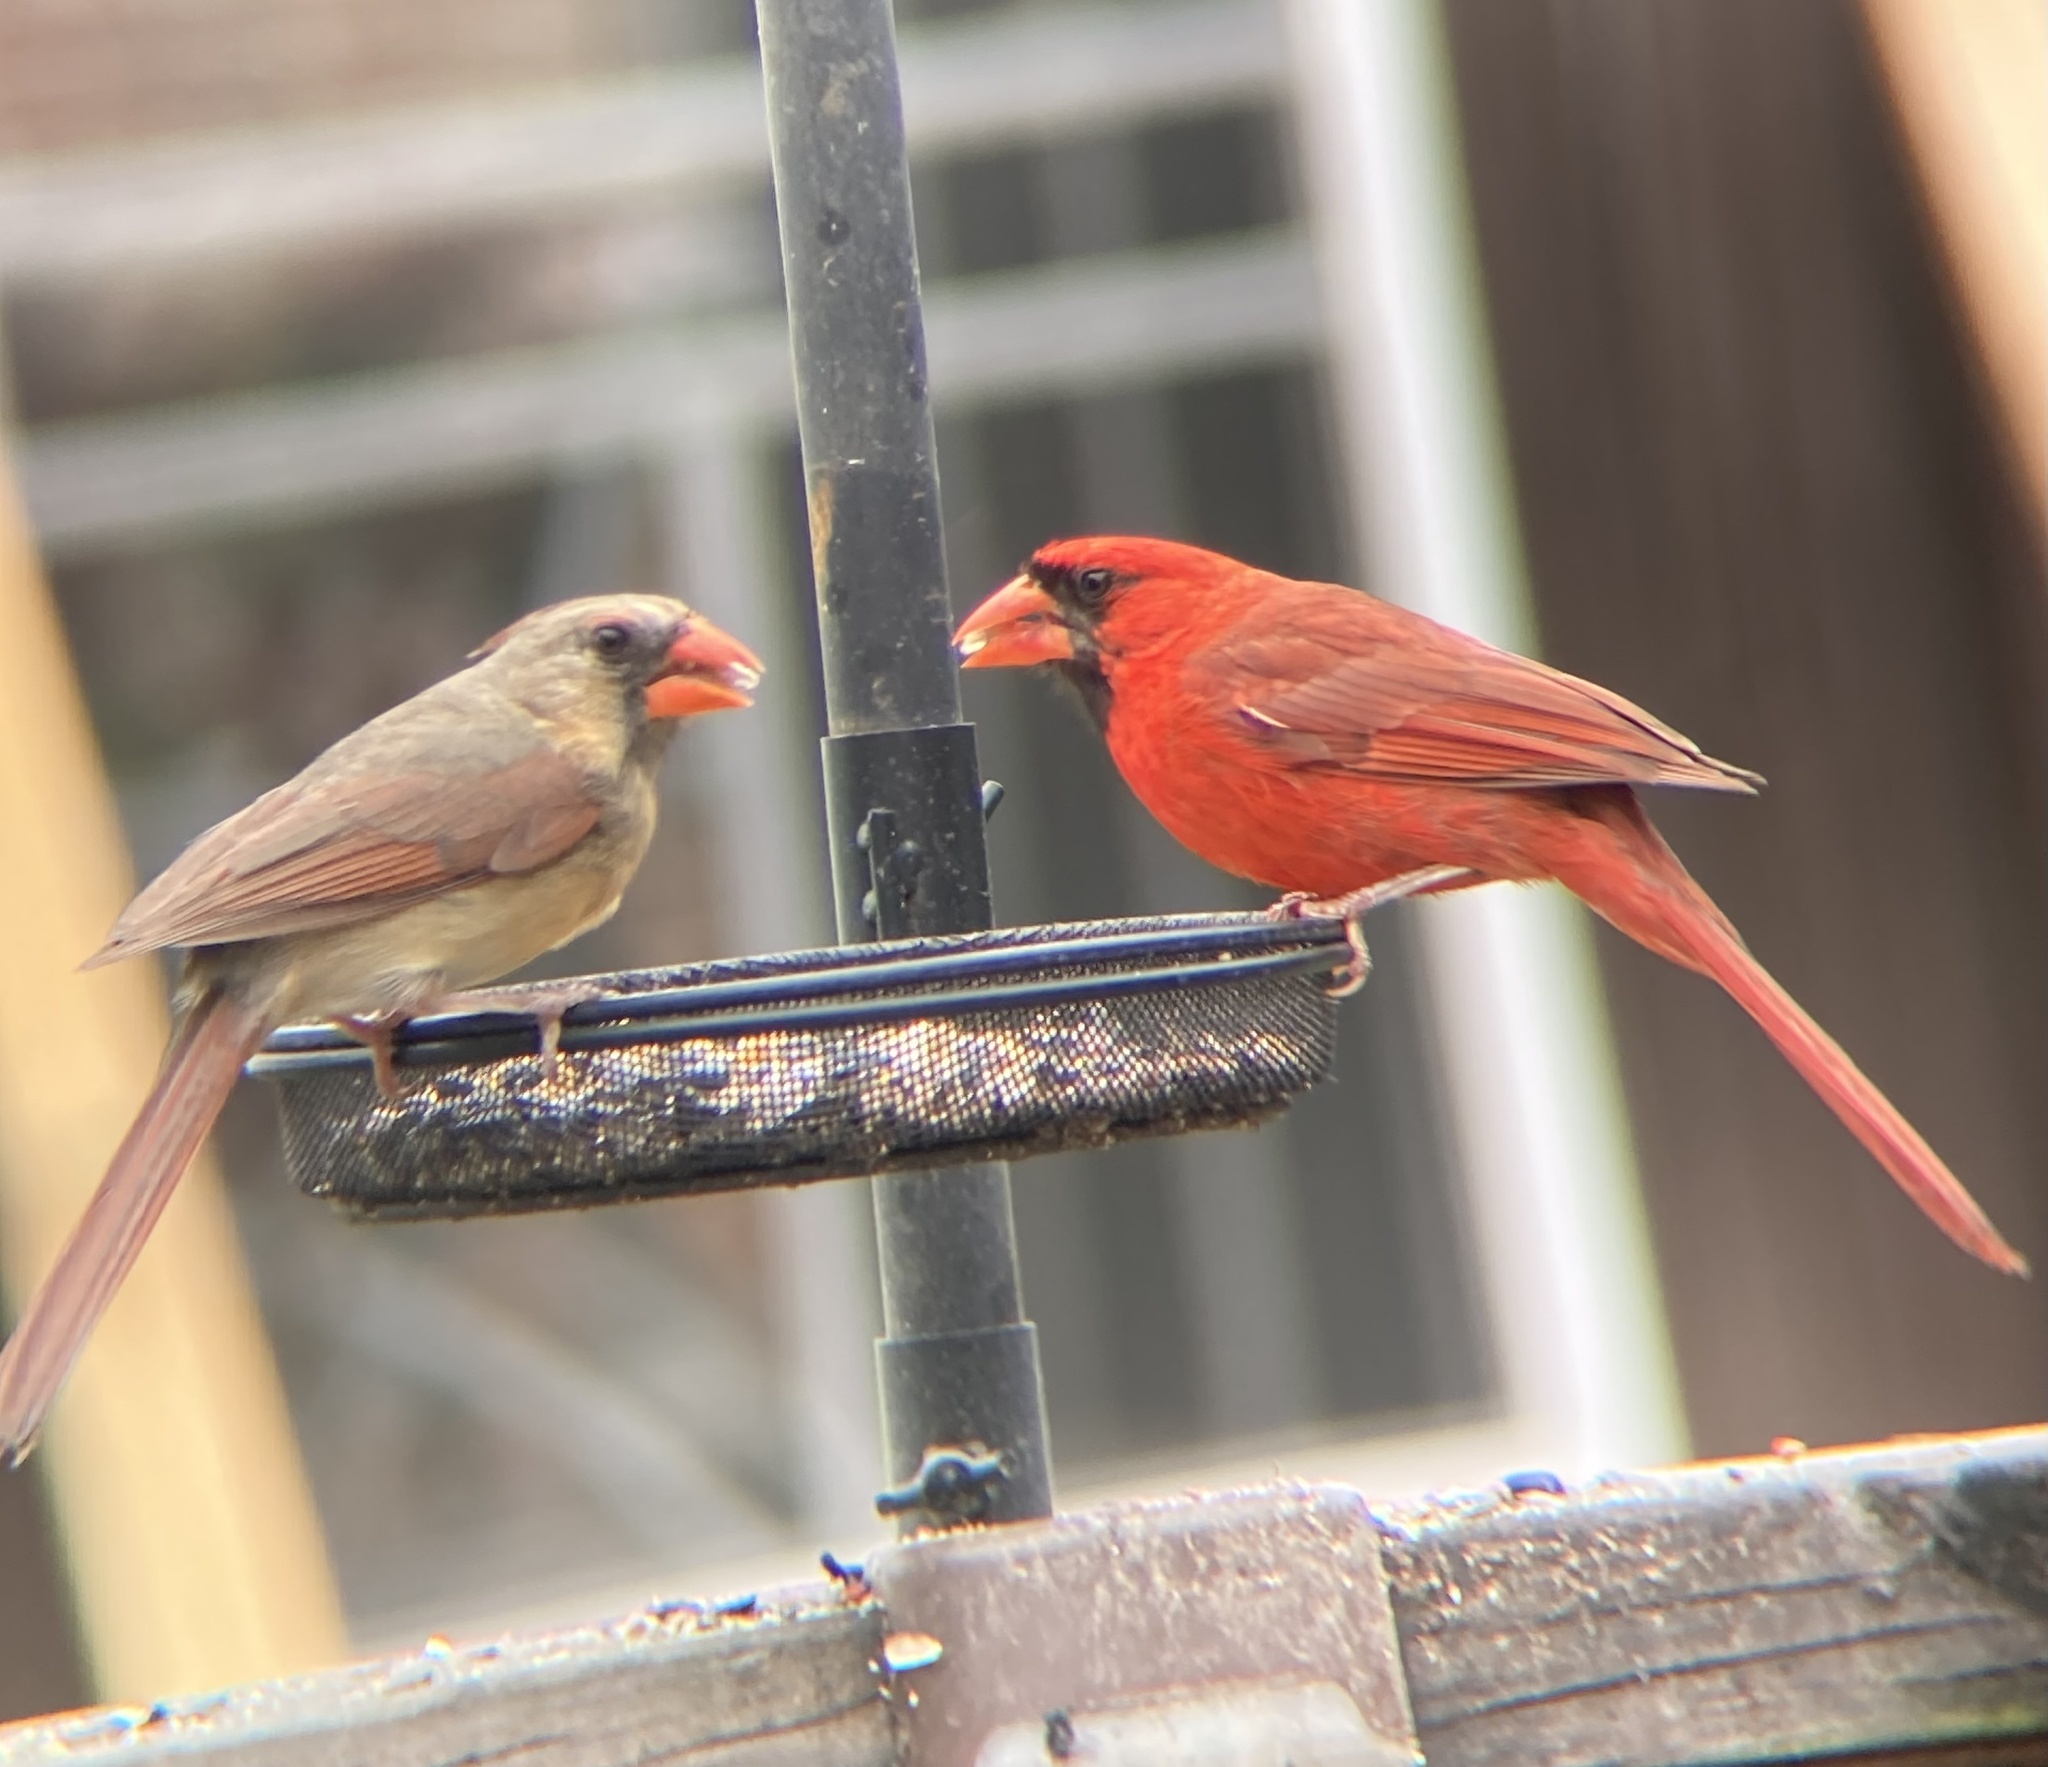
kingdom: Animalia
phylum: Chordata
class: Aves
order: Passeriformes
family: Cardinalidae
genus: Cardinalis
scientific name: Cardinalis cardinalis
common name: Northern cardinal
